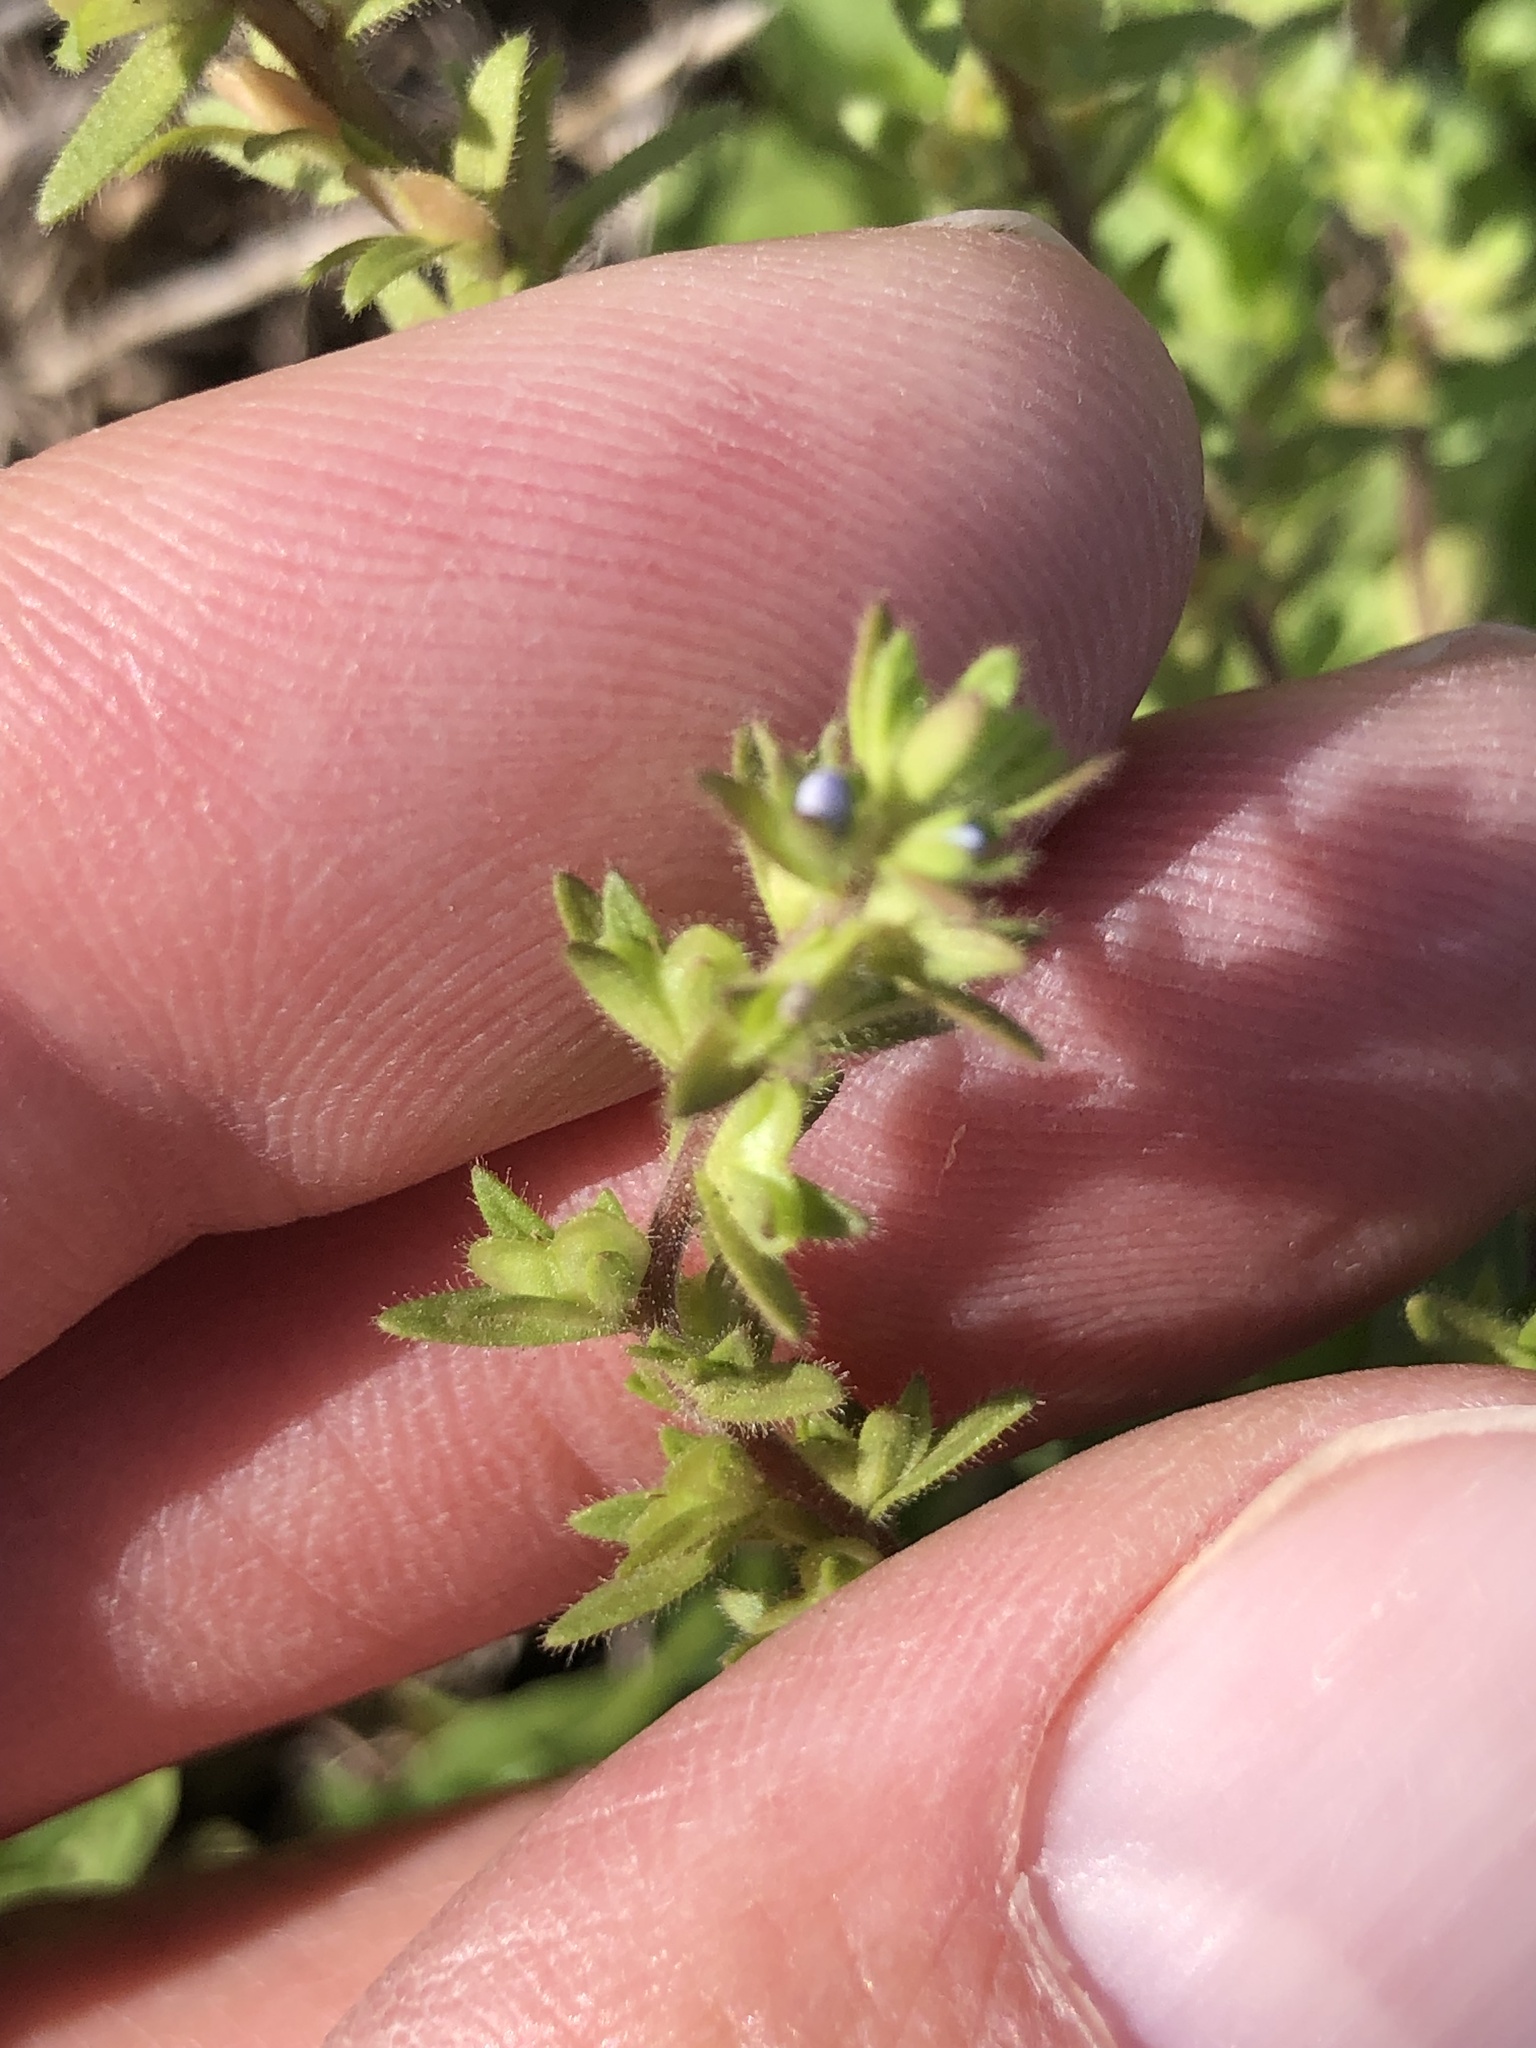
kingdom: Plantae
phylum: Tracheophyta
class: Magnoliopsida
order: Lamiales
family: Plantaginaceae
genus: Veronica
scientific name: Veronica arvensis
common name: Corn speedwell
